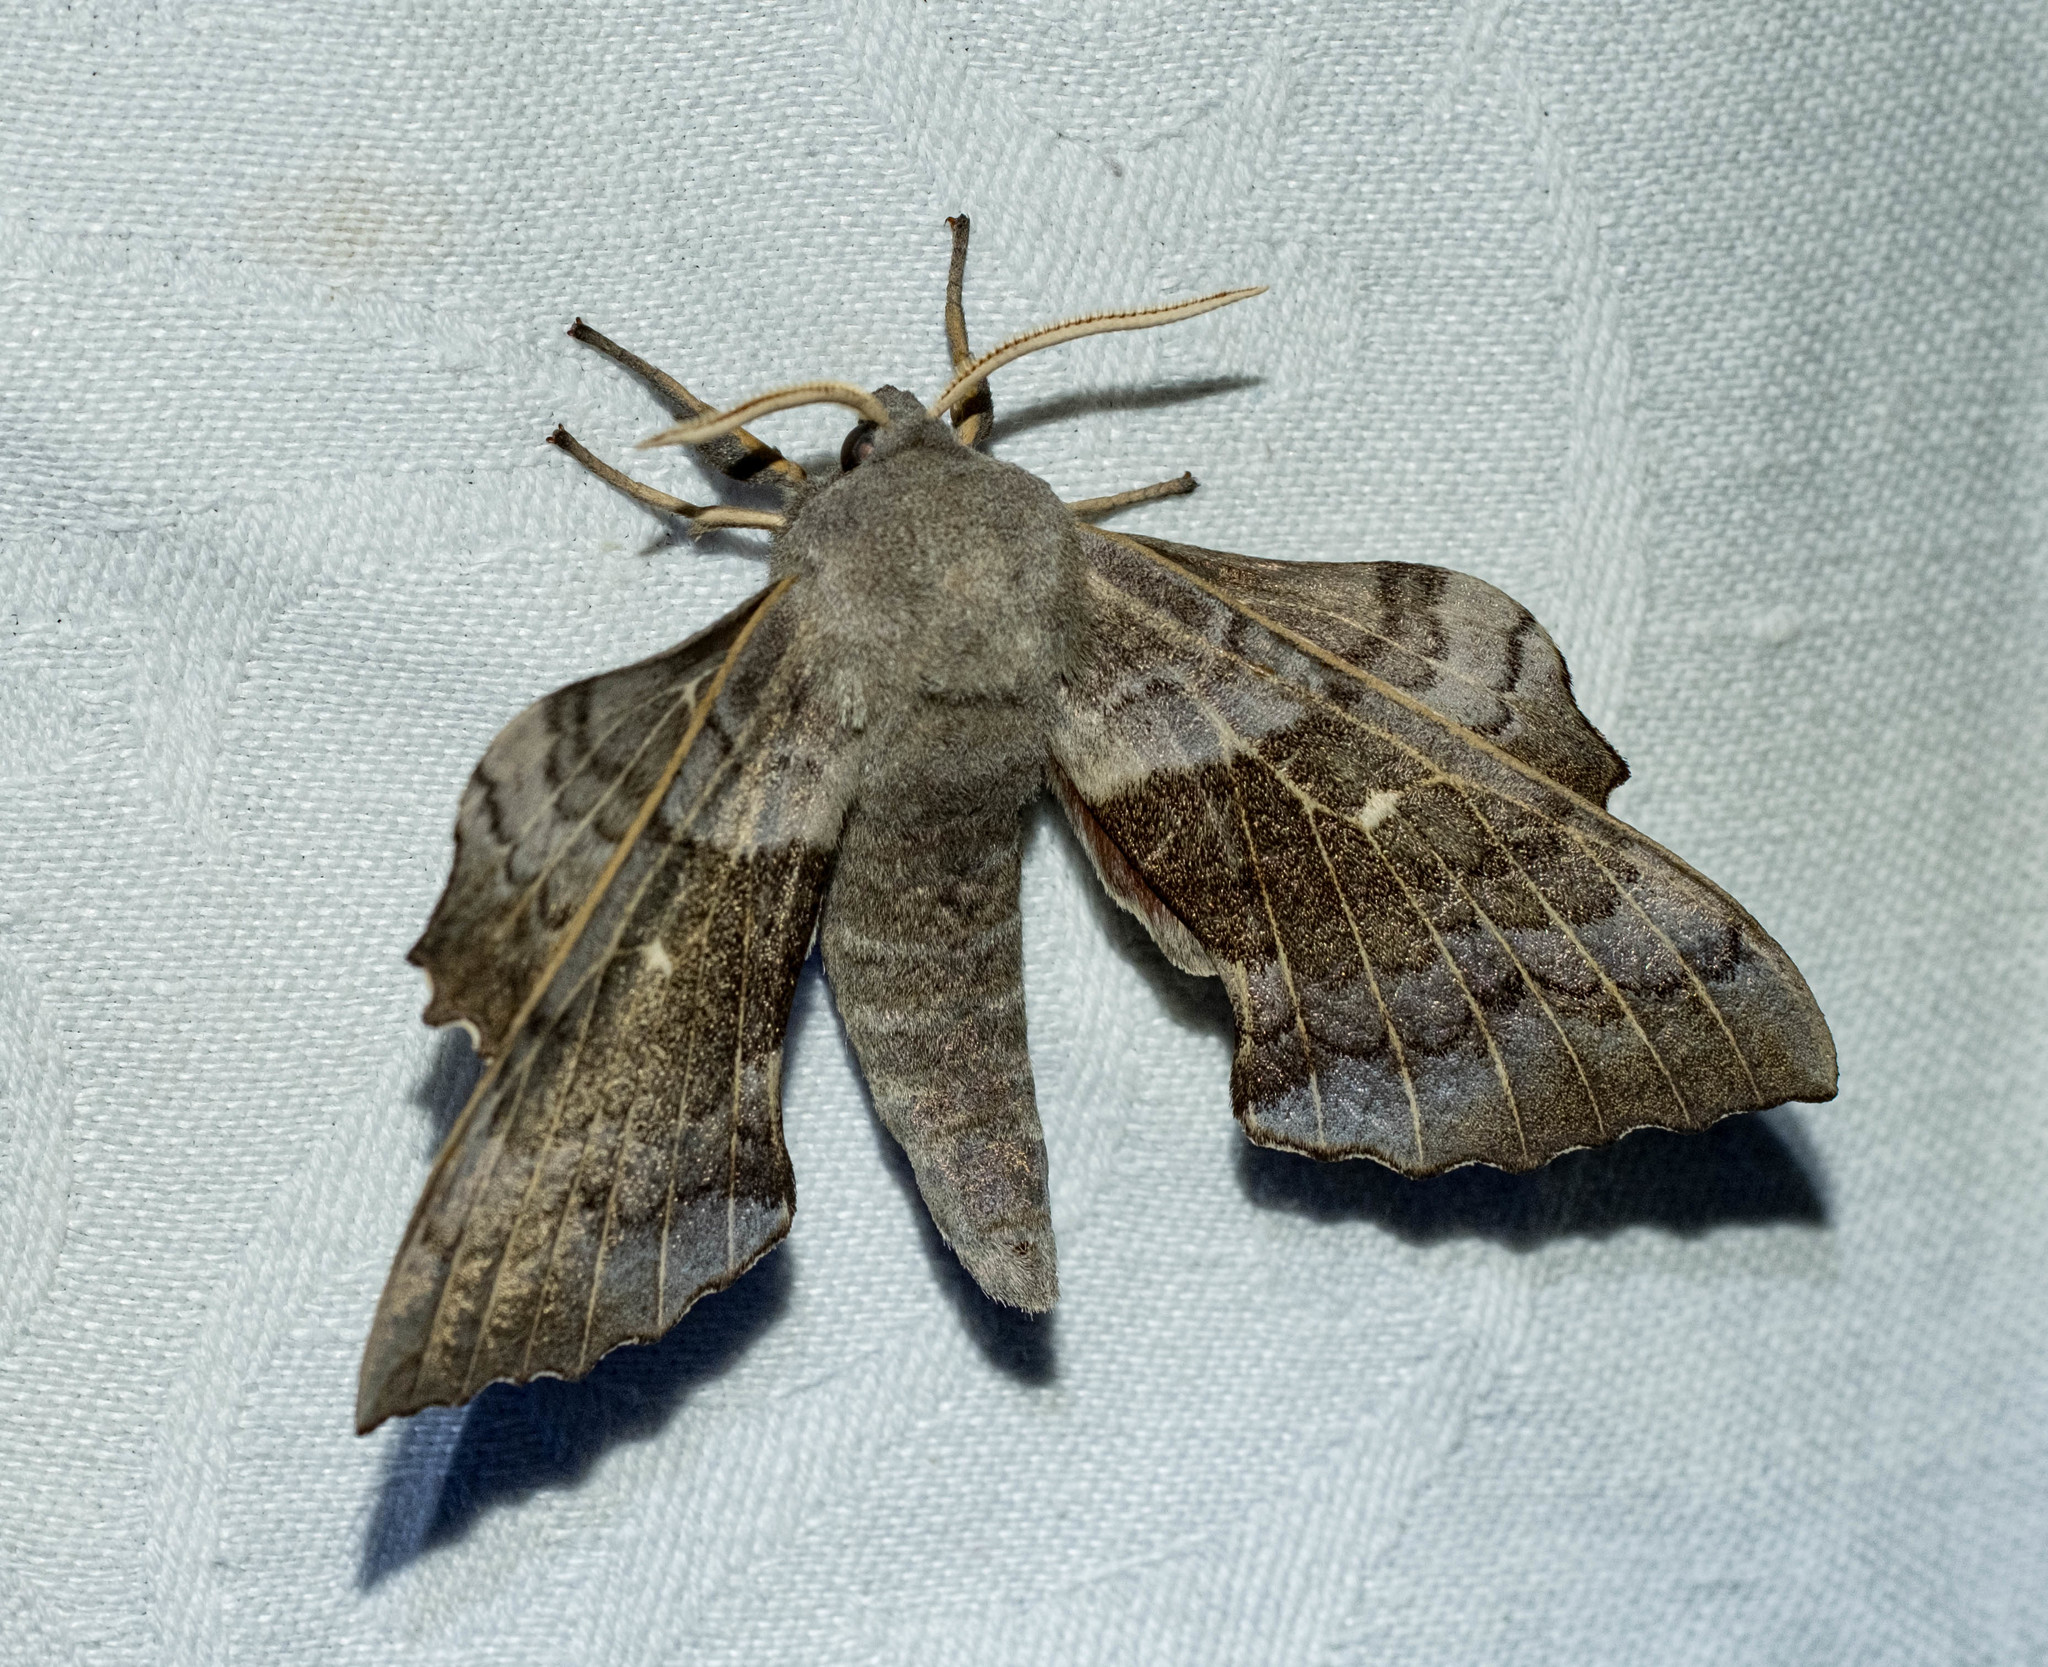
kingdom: Animalia
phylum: Arthropoda
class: Insecta
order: Lepidoptera
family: Sphingidae
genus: Laothoe
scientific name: Laothoe populi
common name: Poplar hawk-moth
